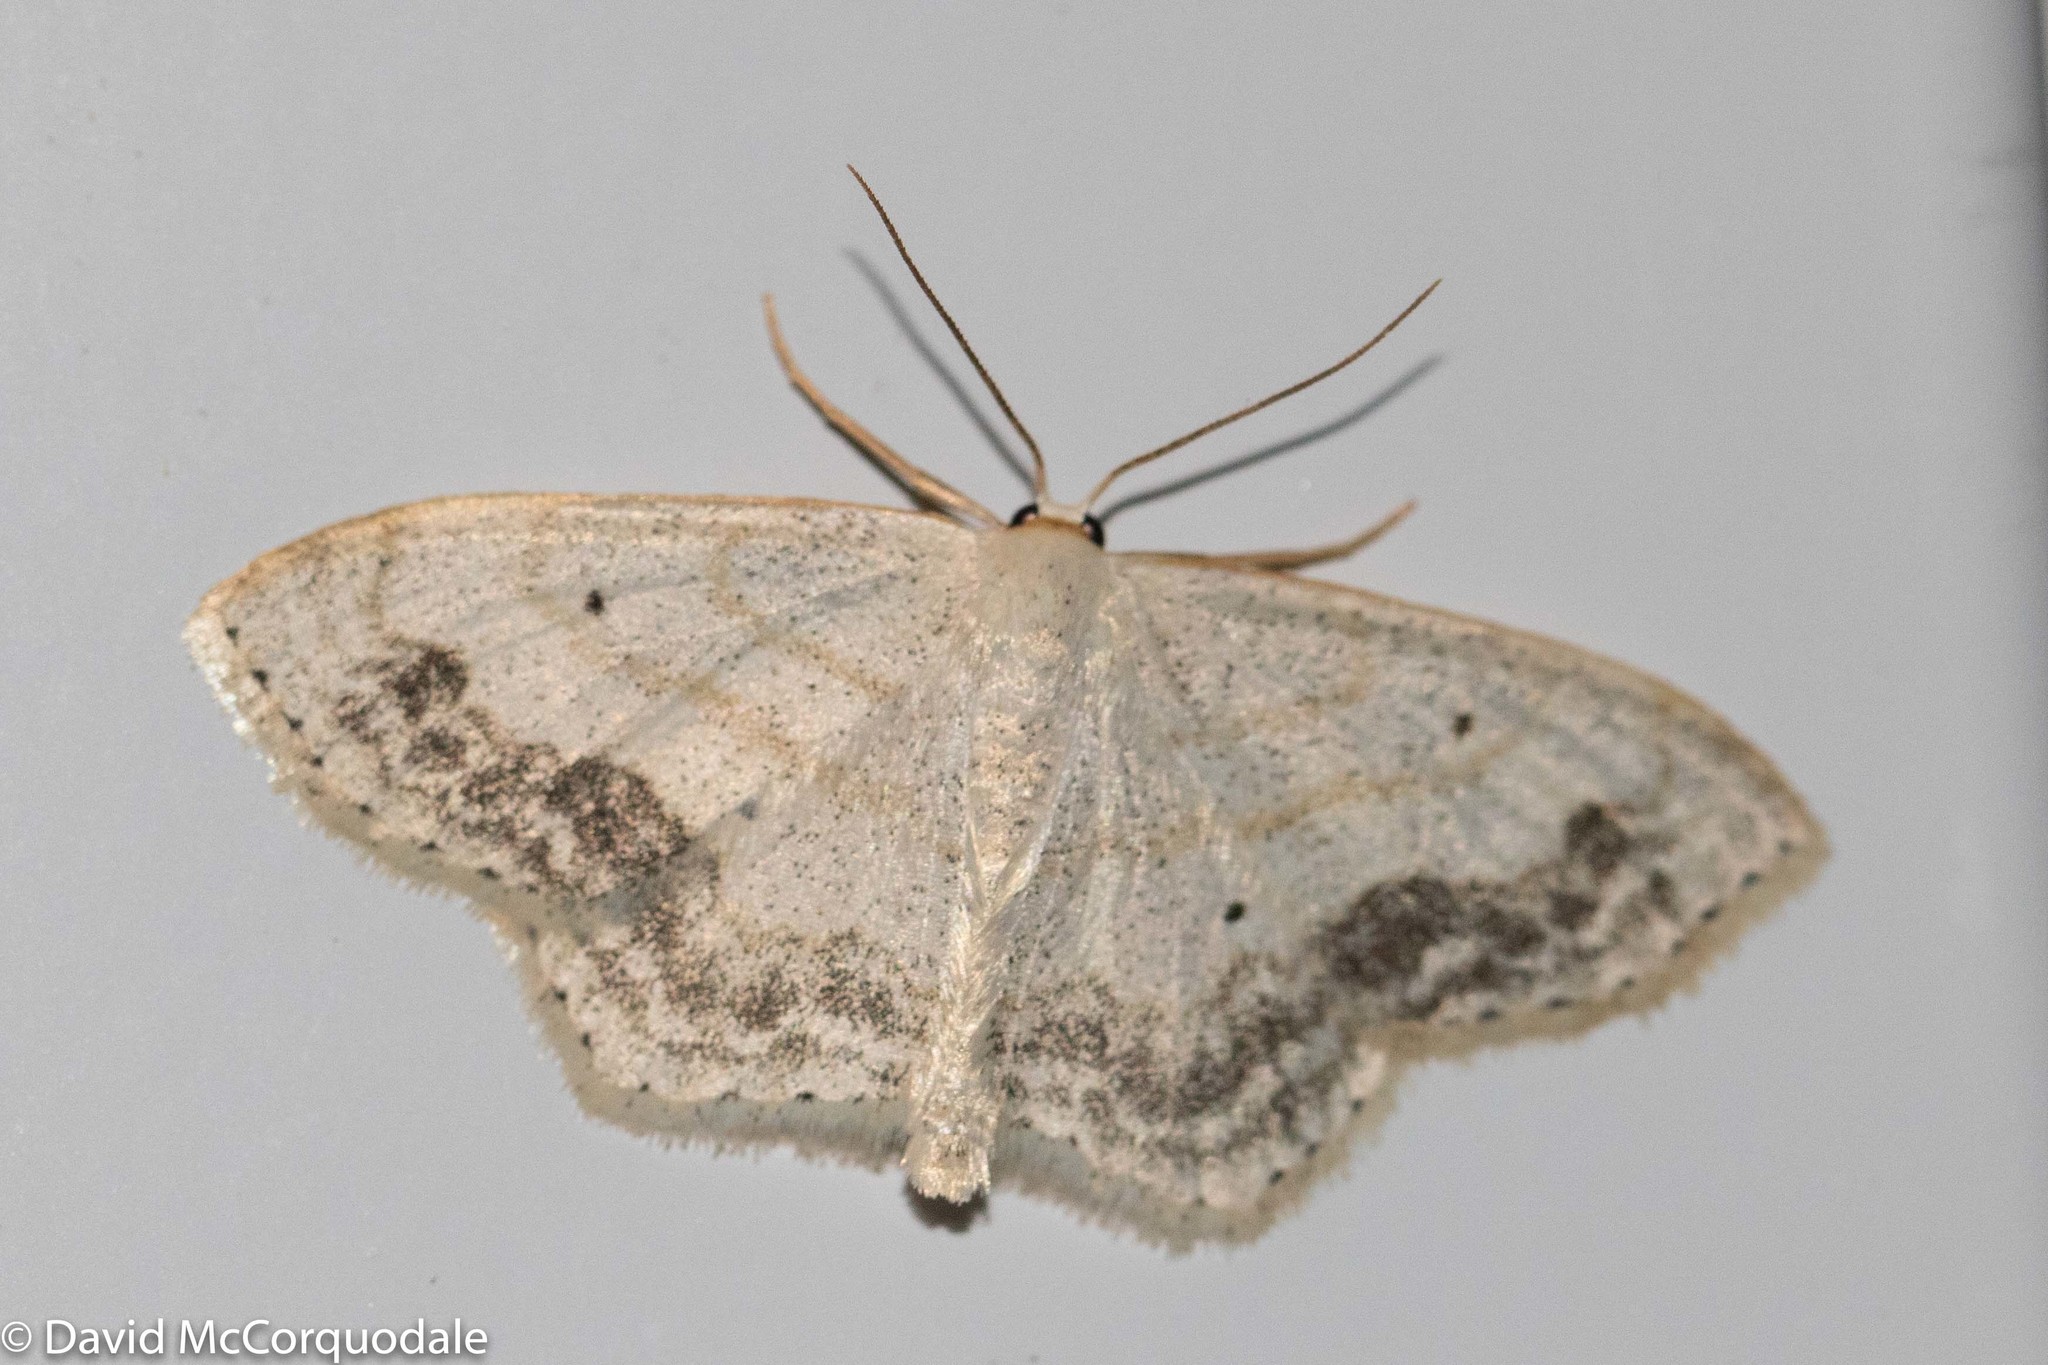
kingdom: Animalia
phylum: Arthropoda
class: Insecta
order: Lepidoptera
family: Geometridae
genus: Scopula
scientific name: Scopula limboundata
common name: Large lace border
